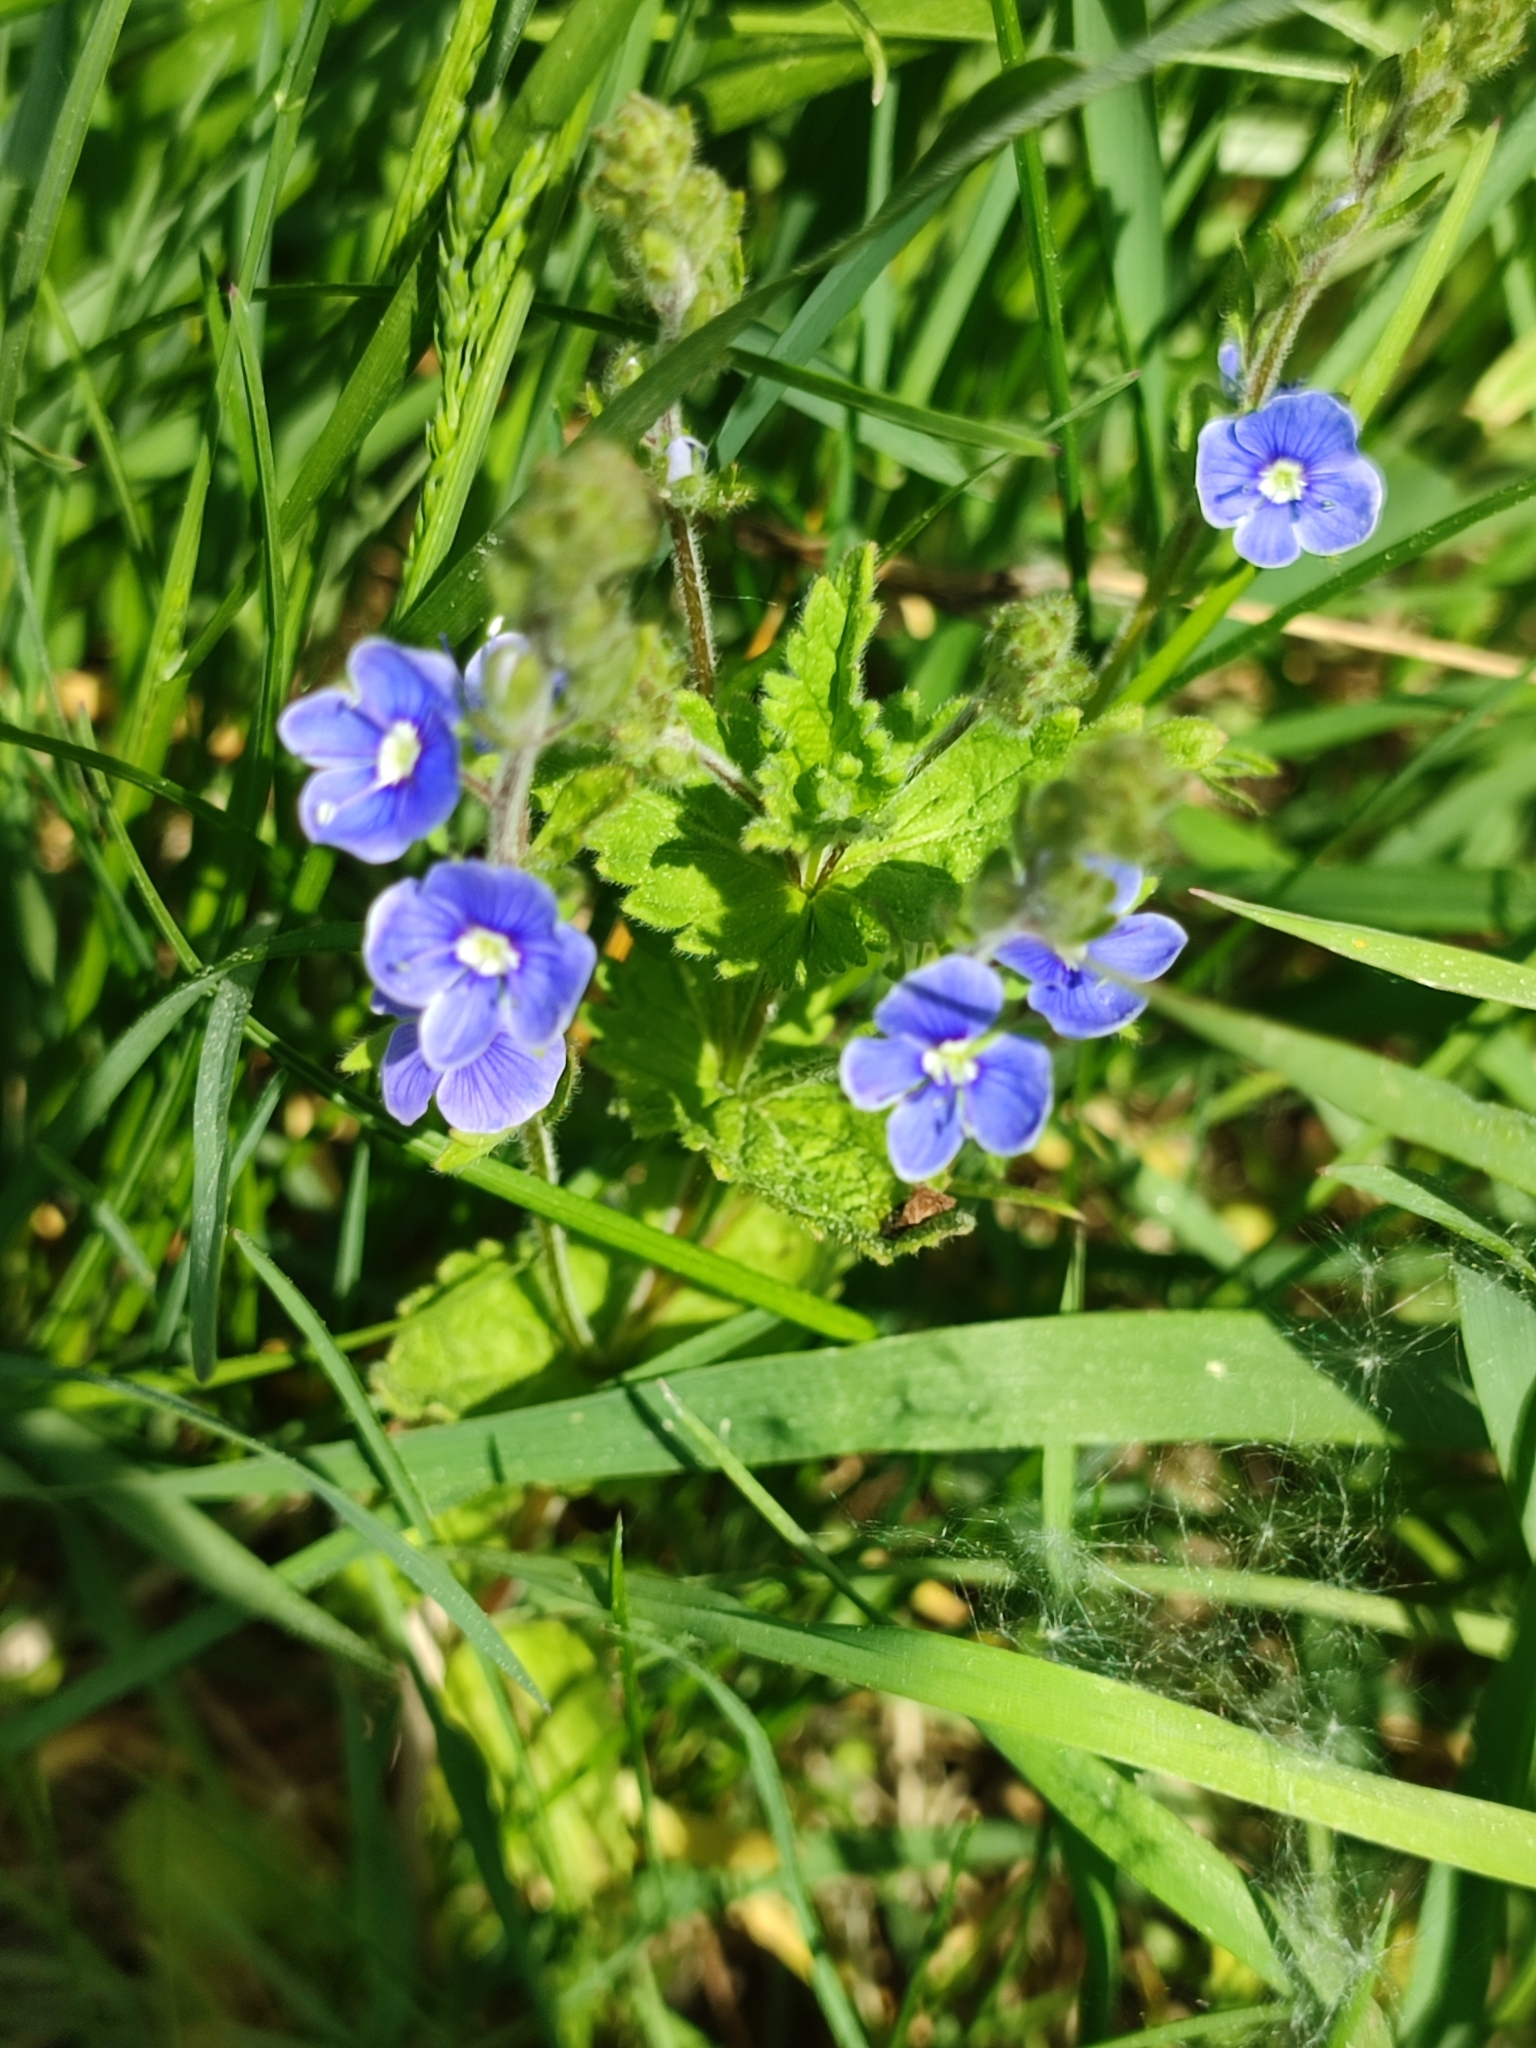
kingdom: Plantae
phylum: Tracheophyta
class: Magnoliopsida
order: Lamiales
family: Plantaginaceae
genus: Veronica
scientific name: Veronica chamaedrys
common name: Germander speedwell
